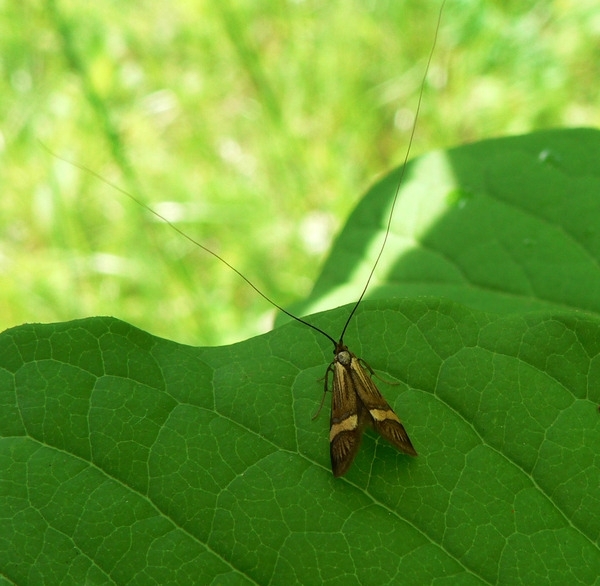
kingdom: Animalia
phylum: Arthropoda
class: Insecta
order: Lepidoptera
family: Adelidae
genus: Nemophora
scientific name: Nemophora degeerella
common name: Yellow-barred long-horn
